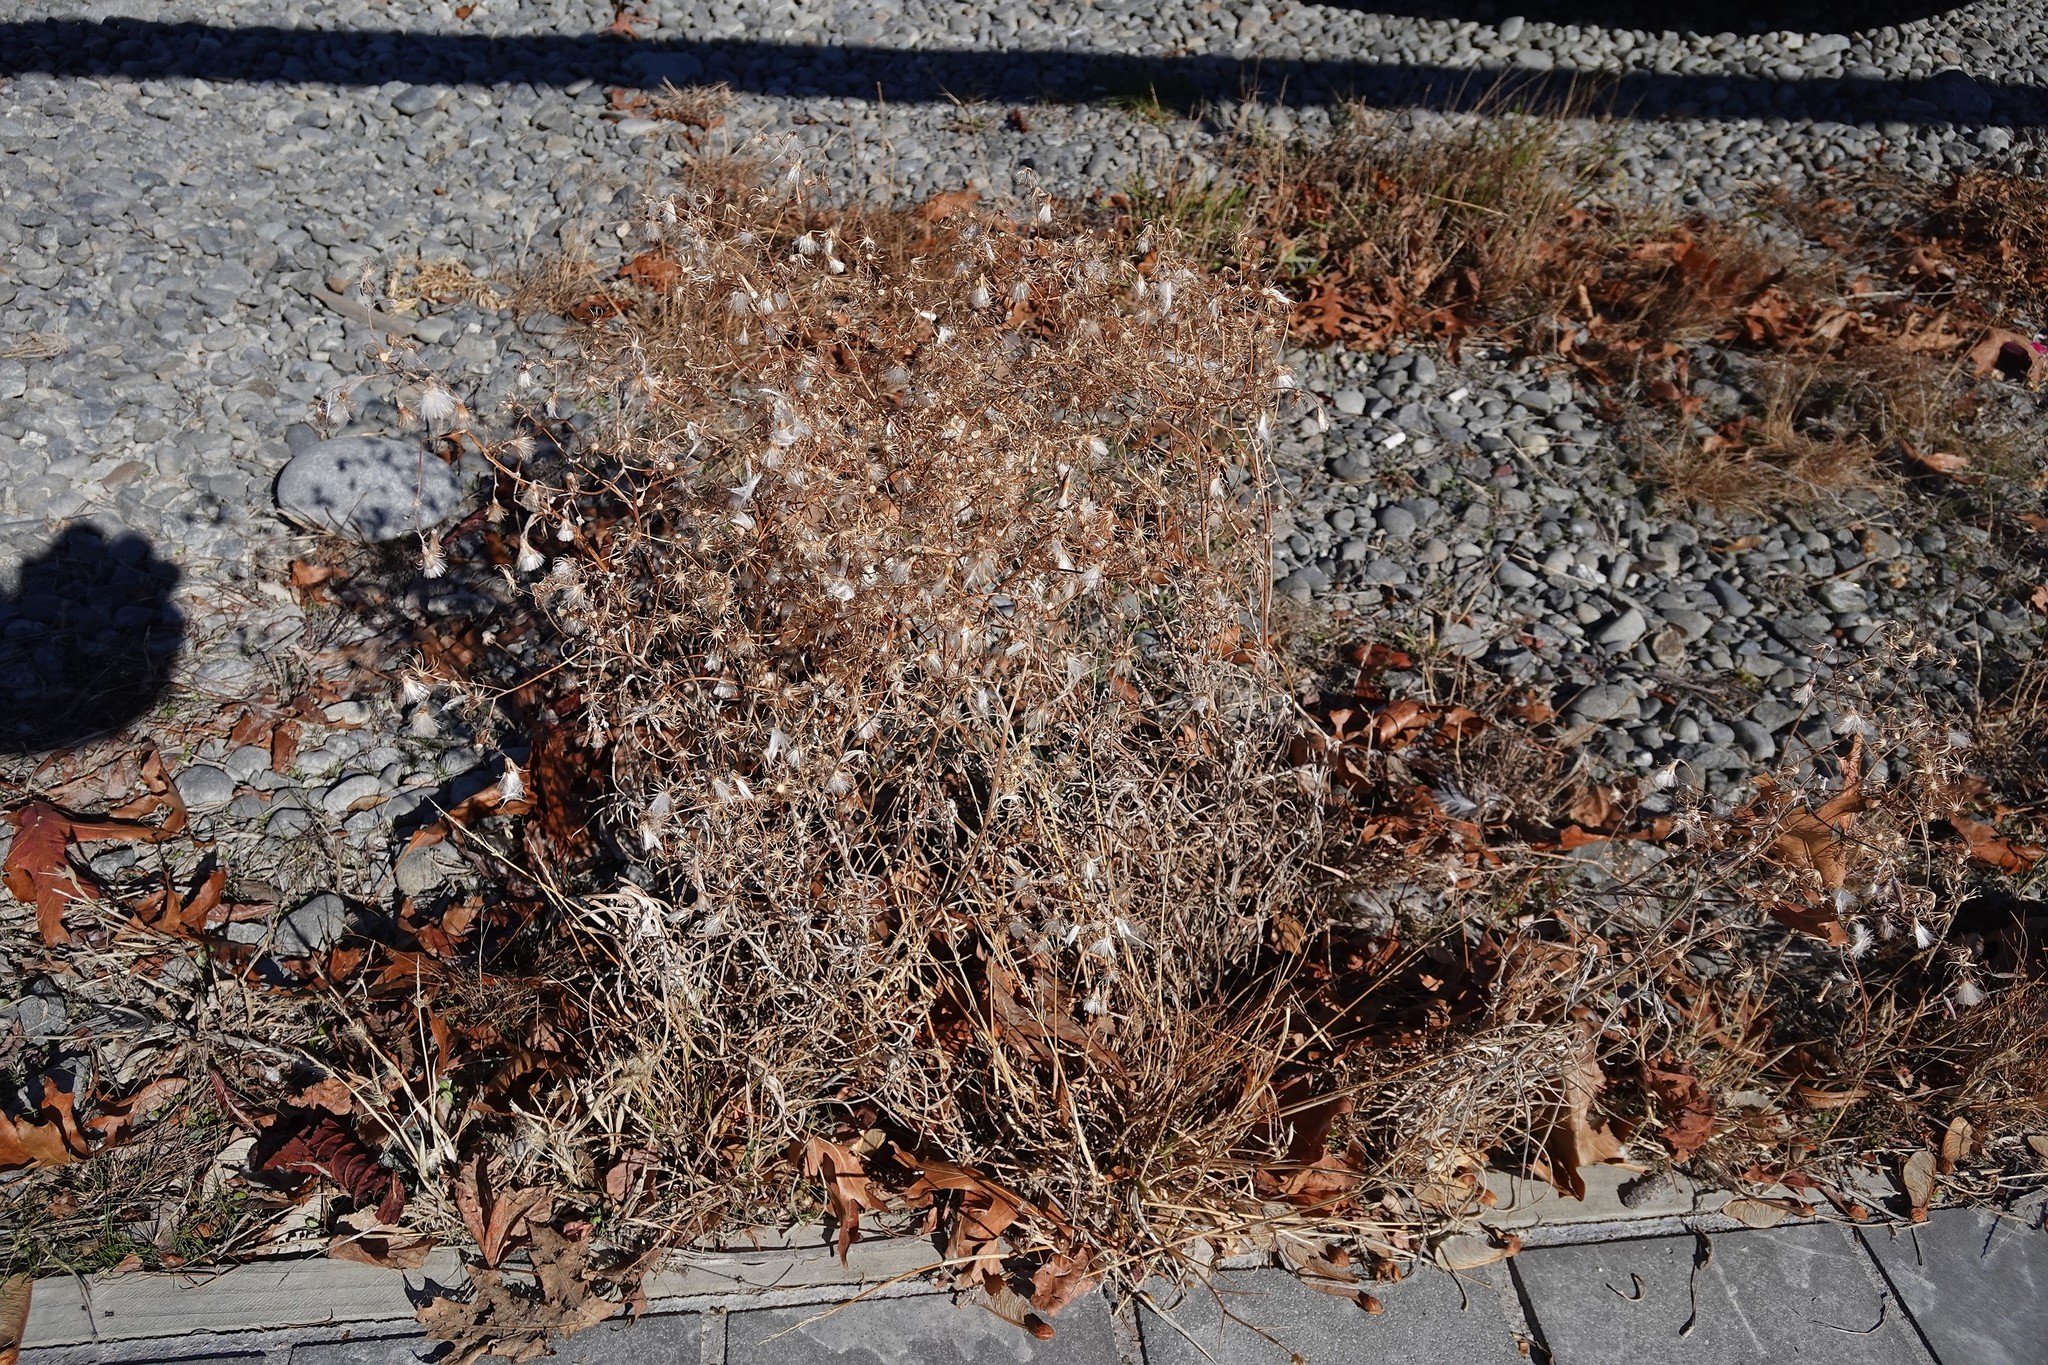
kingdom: Plantae
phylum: Tracheophyta
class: Magnoliopsida
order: Asterales
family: Asteraceae
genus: Senecio
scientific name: Senecio quadridentatus
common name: Cotton fireweed
